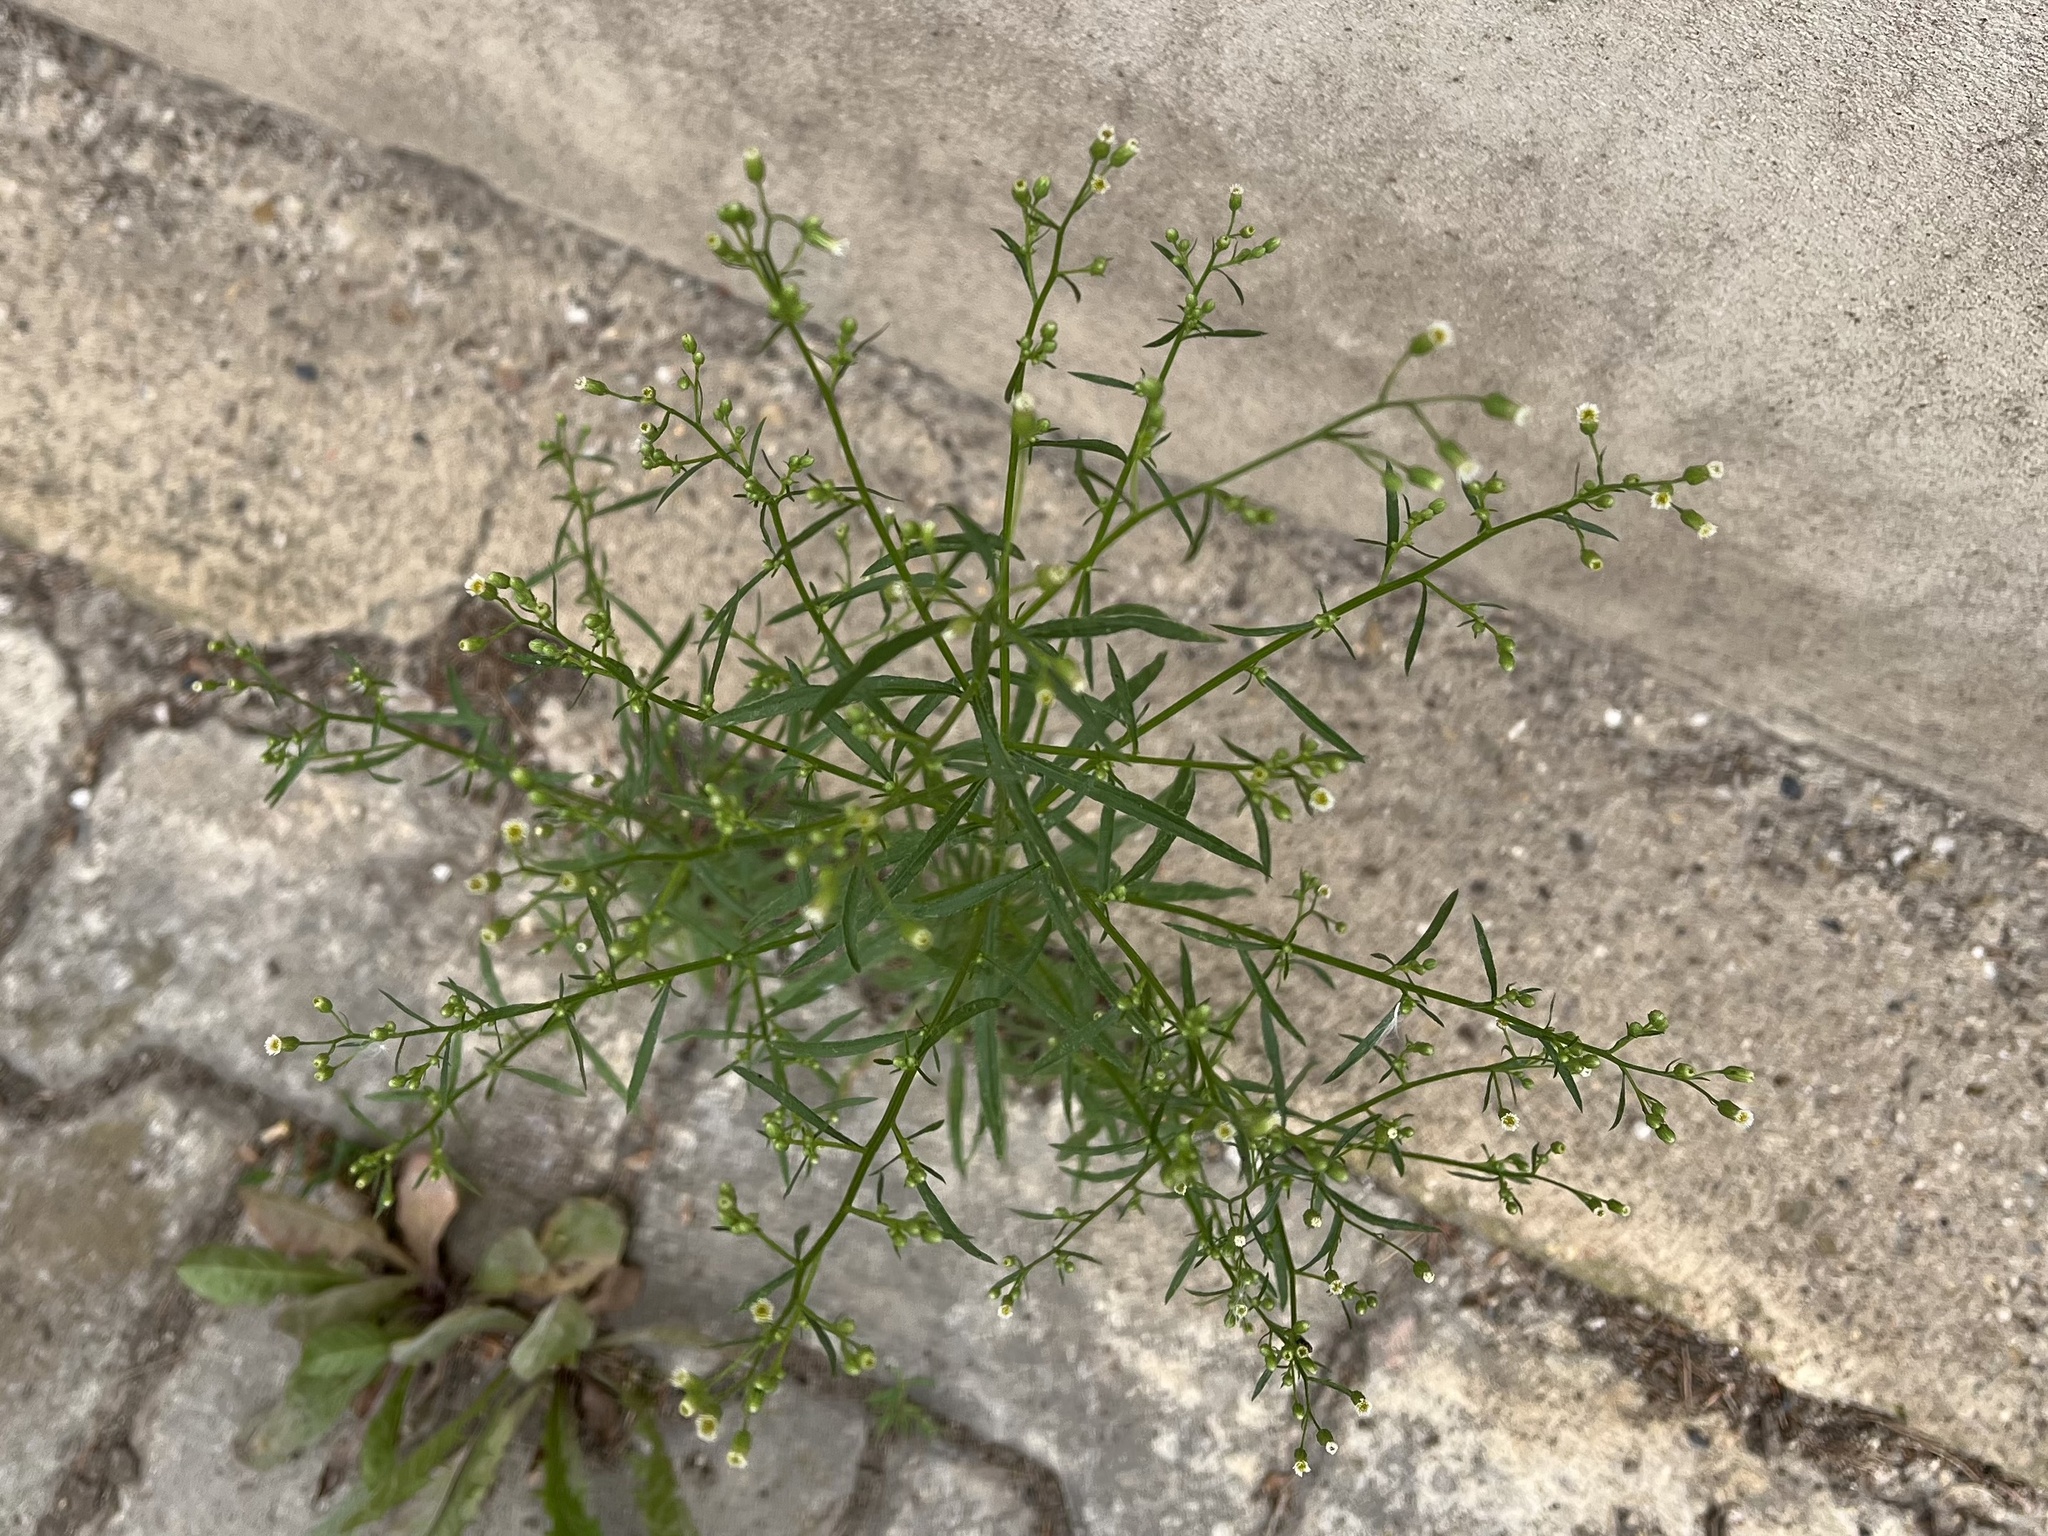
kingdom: Plantae
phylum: Tracheophyta
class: Magnoliopsida
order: Asterales
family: Asteraceae
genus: Erigeron
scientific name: Erigeron canadensis
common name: Canadian fleabane
